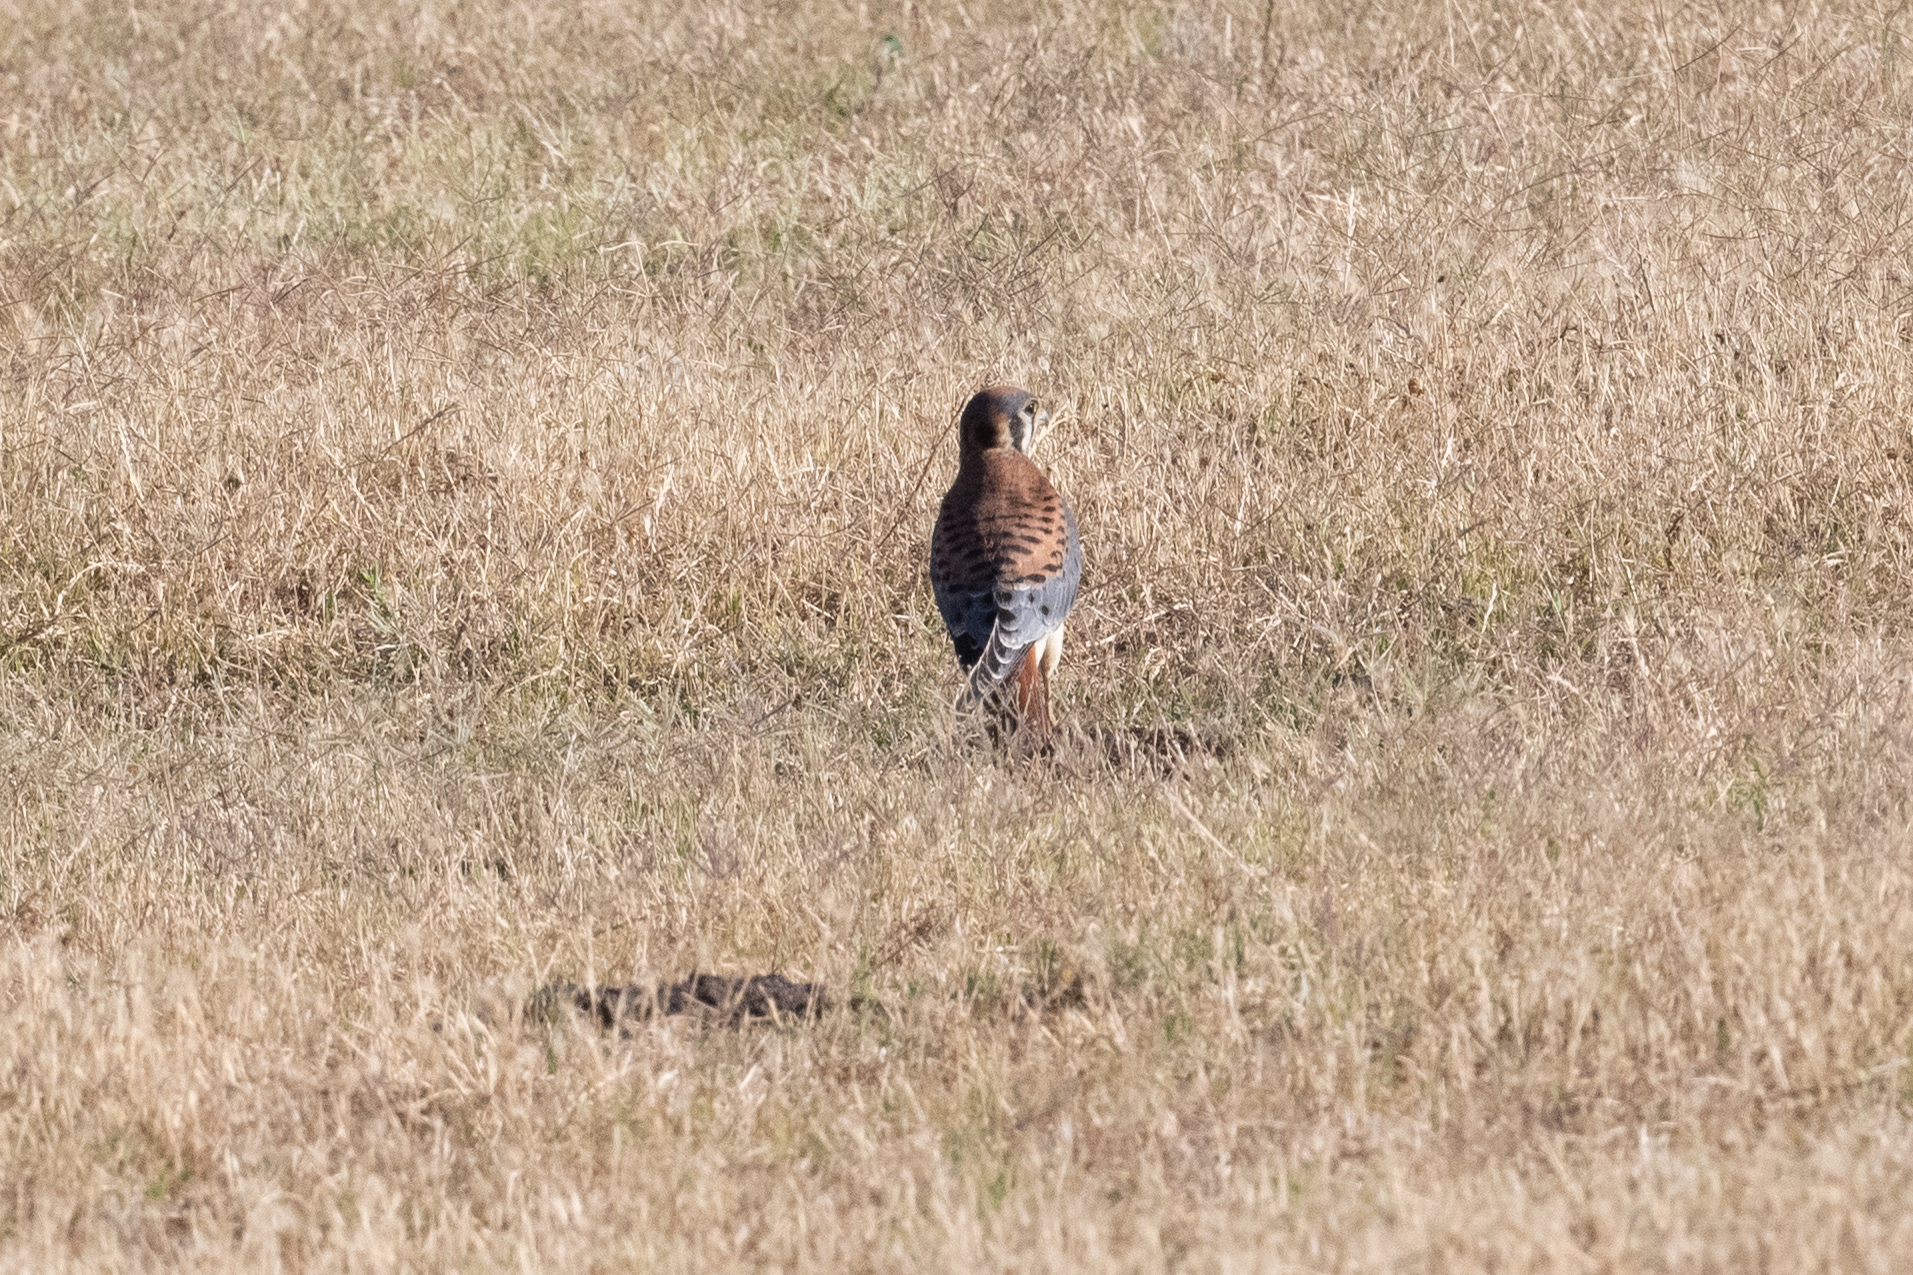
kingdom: Animalia
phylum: Chordata
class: Aves
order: Falconiformes
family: Falconidae
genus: Falco
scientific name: Falco sparverius
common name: American kestrel
